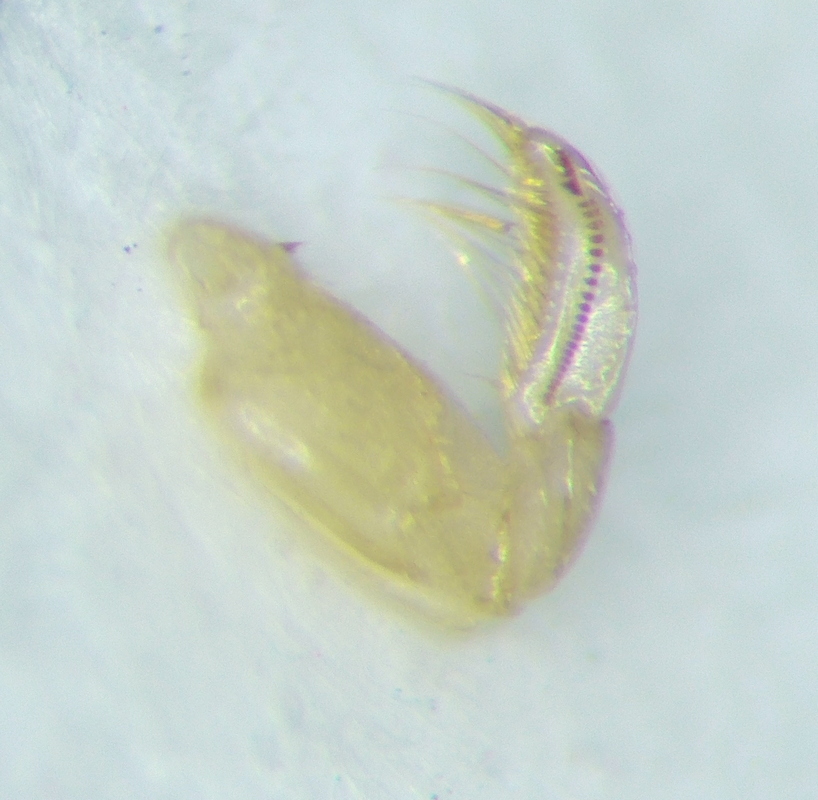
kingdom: Animalia
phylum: Arthropoda
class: Insecta
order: Hemiptera
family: Corixidae
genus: Sigara
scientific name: Sigara lateralis
